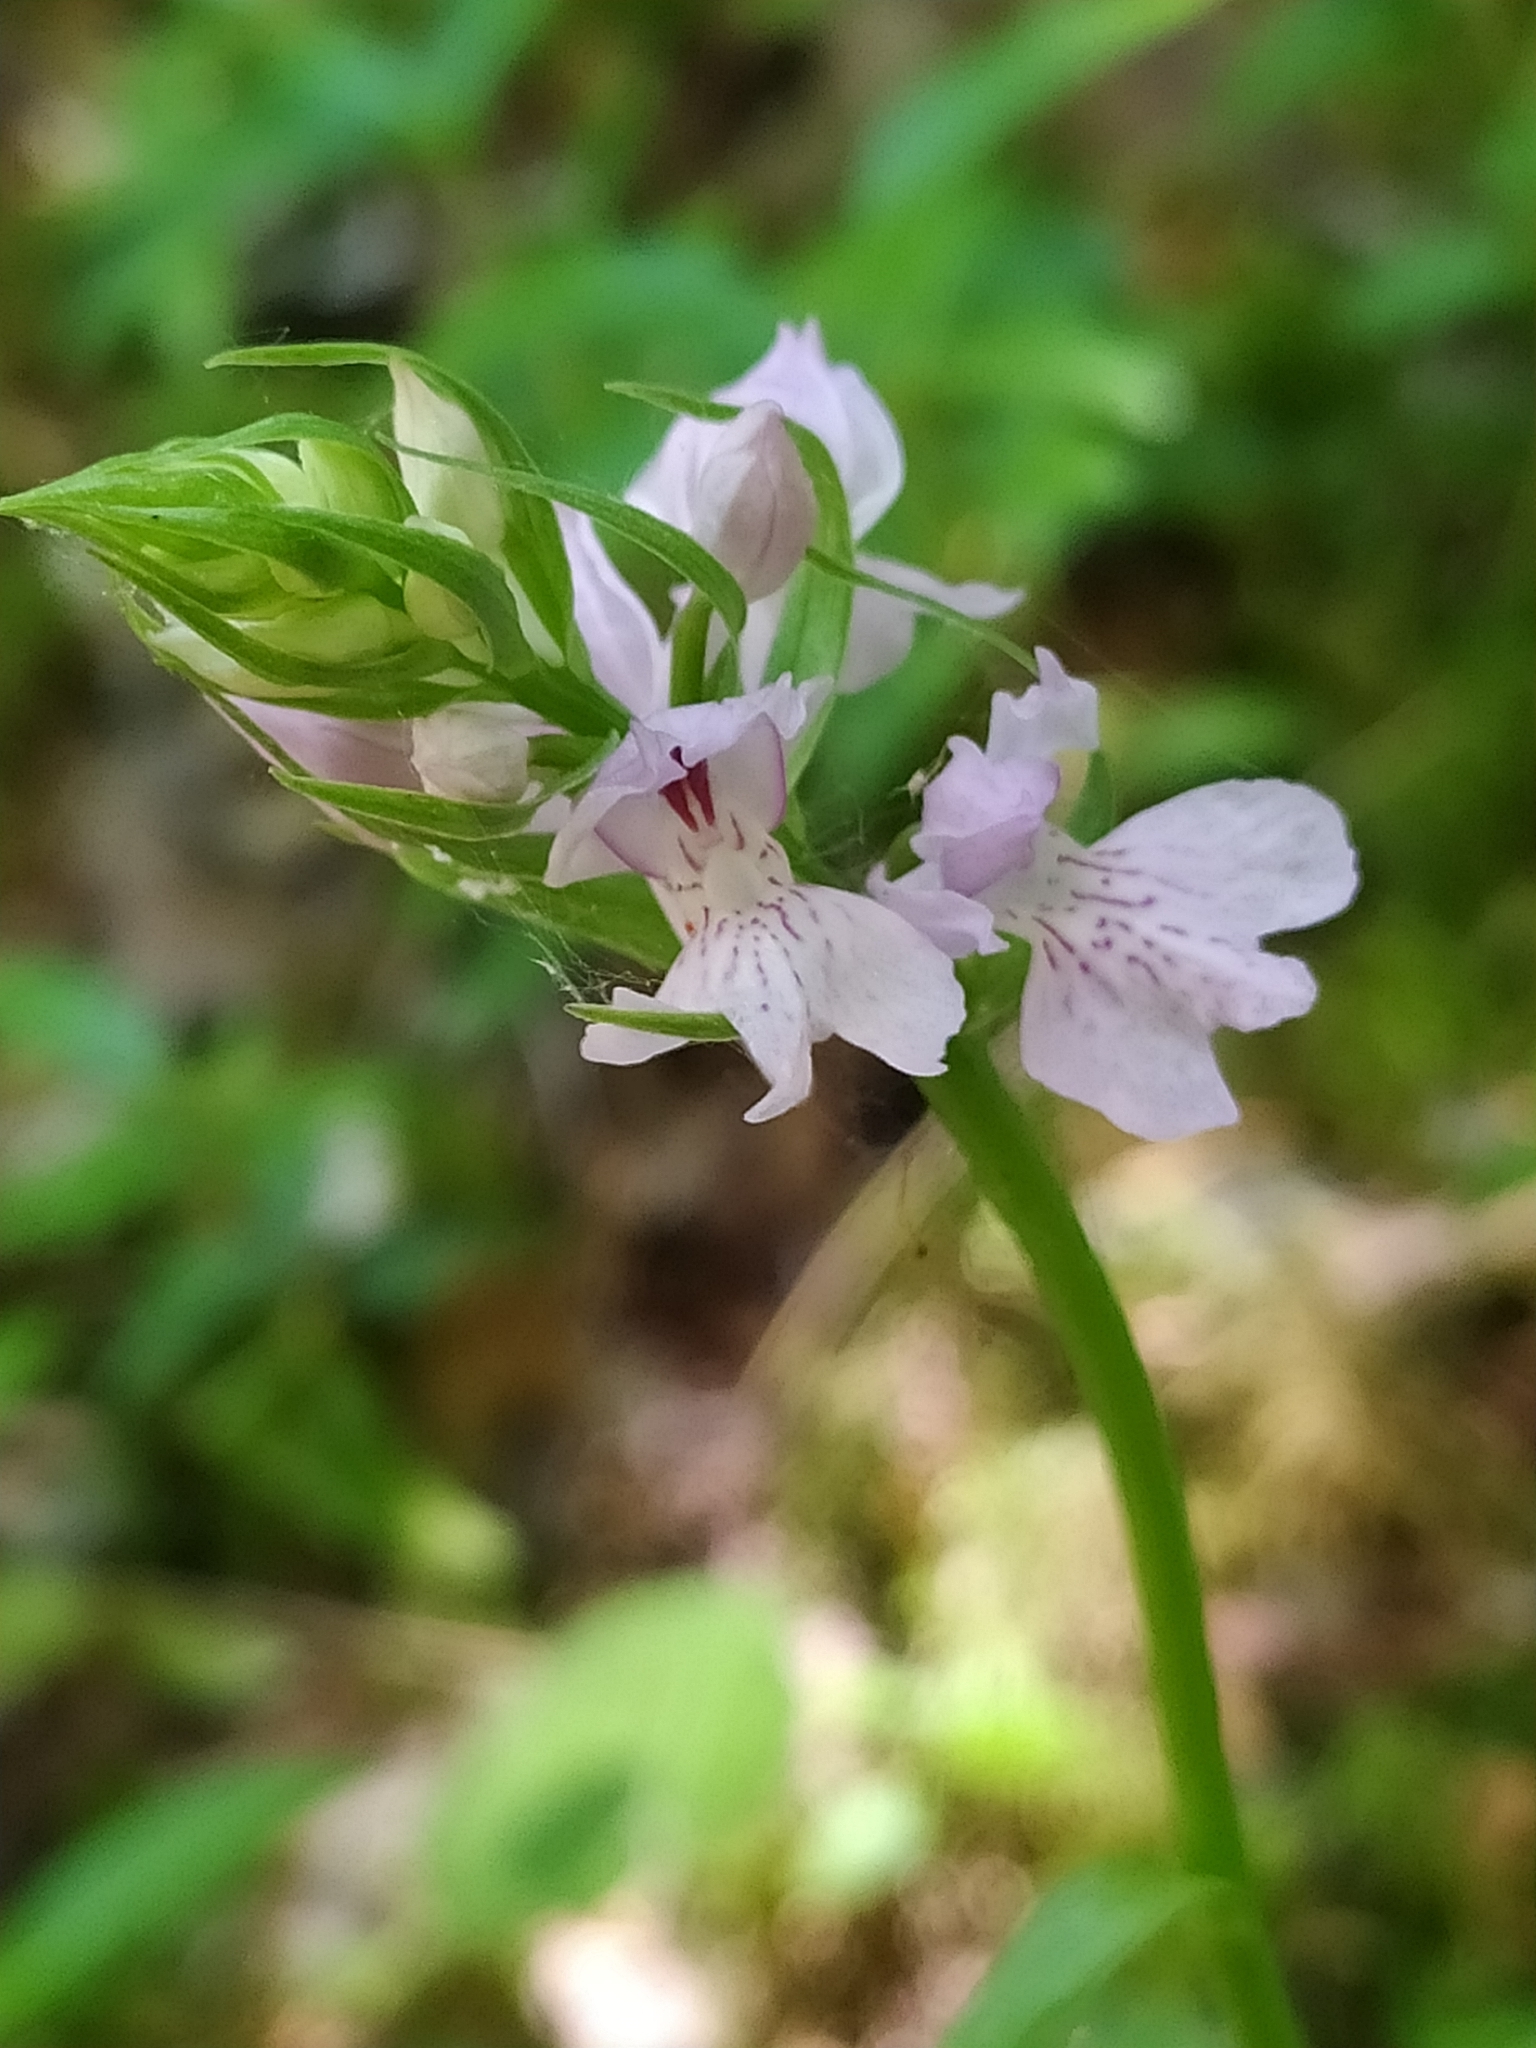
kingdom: Plantae
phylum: Tracheophyta
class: Liliopsida
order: Asparagales
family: Orchidaceae
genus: Dactylorhiza
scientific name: Dactylorhiza maculata
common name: Heath spotted-orchid
